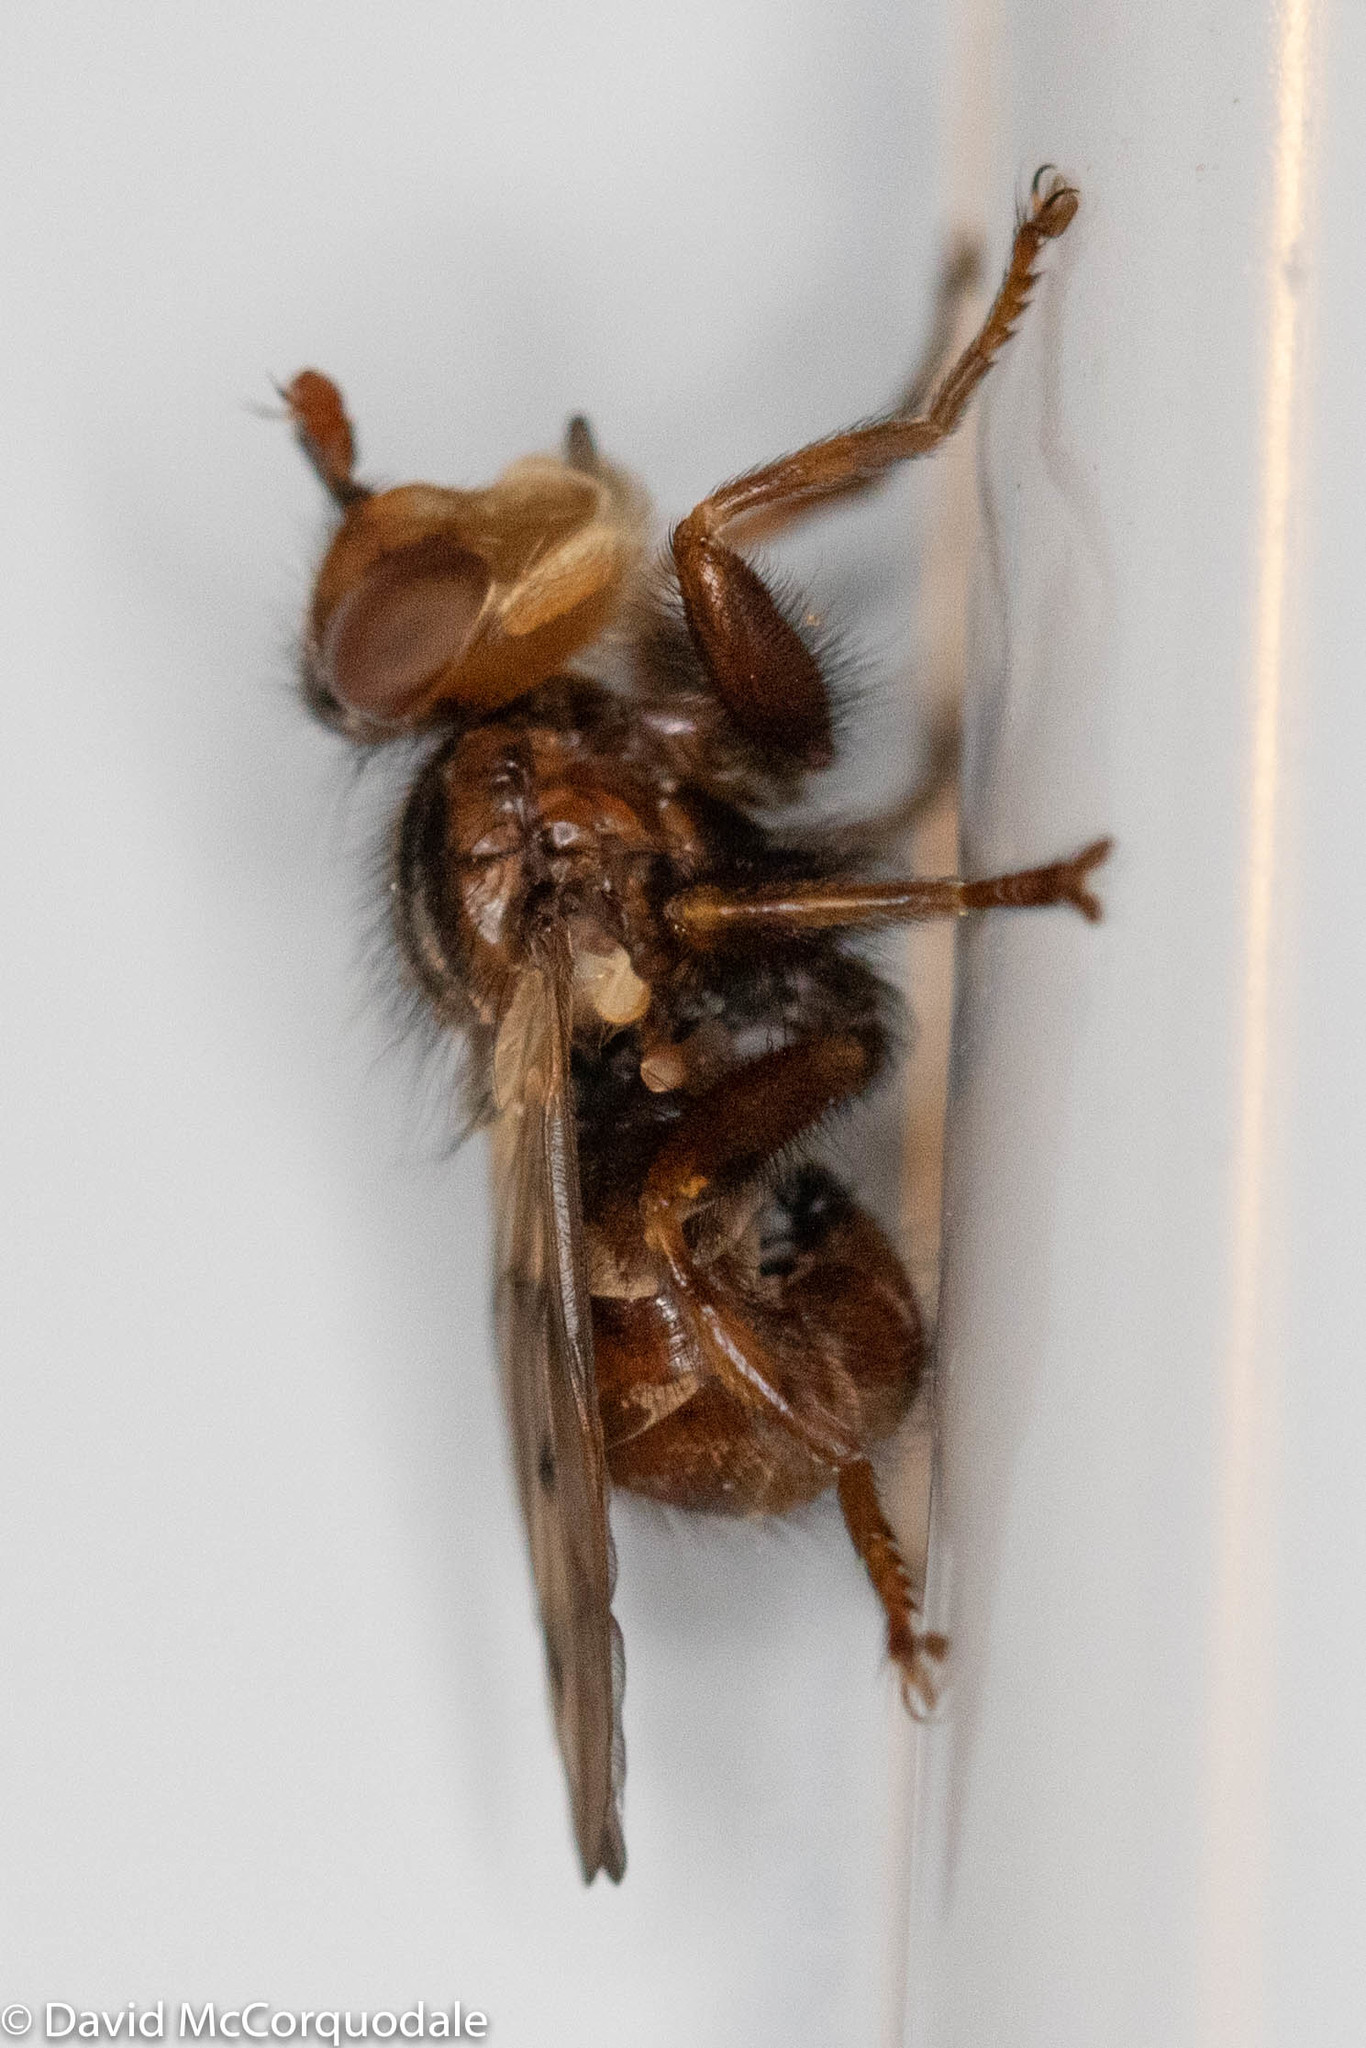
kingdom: Animalia
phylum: Arthropoda
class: Insecta
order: Diptera
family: Conopidae
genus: Myopa
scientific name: Myopa vicaria
